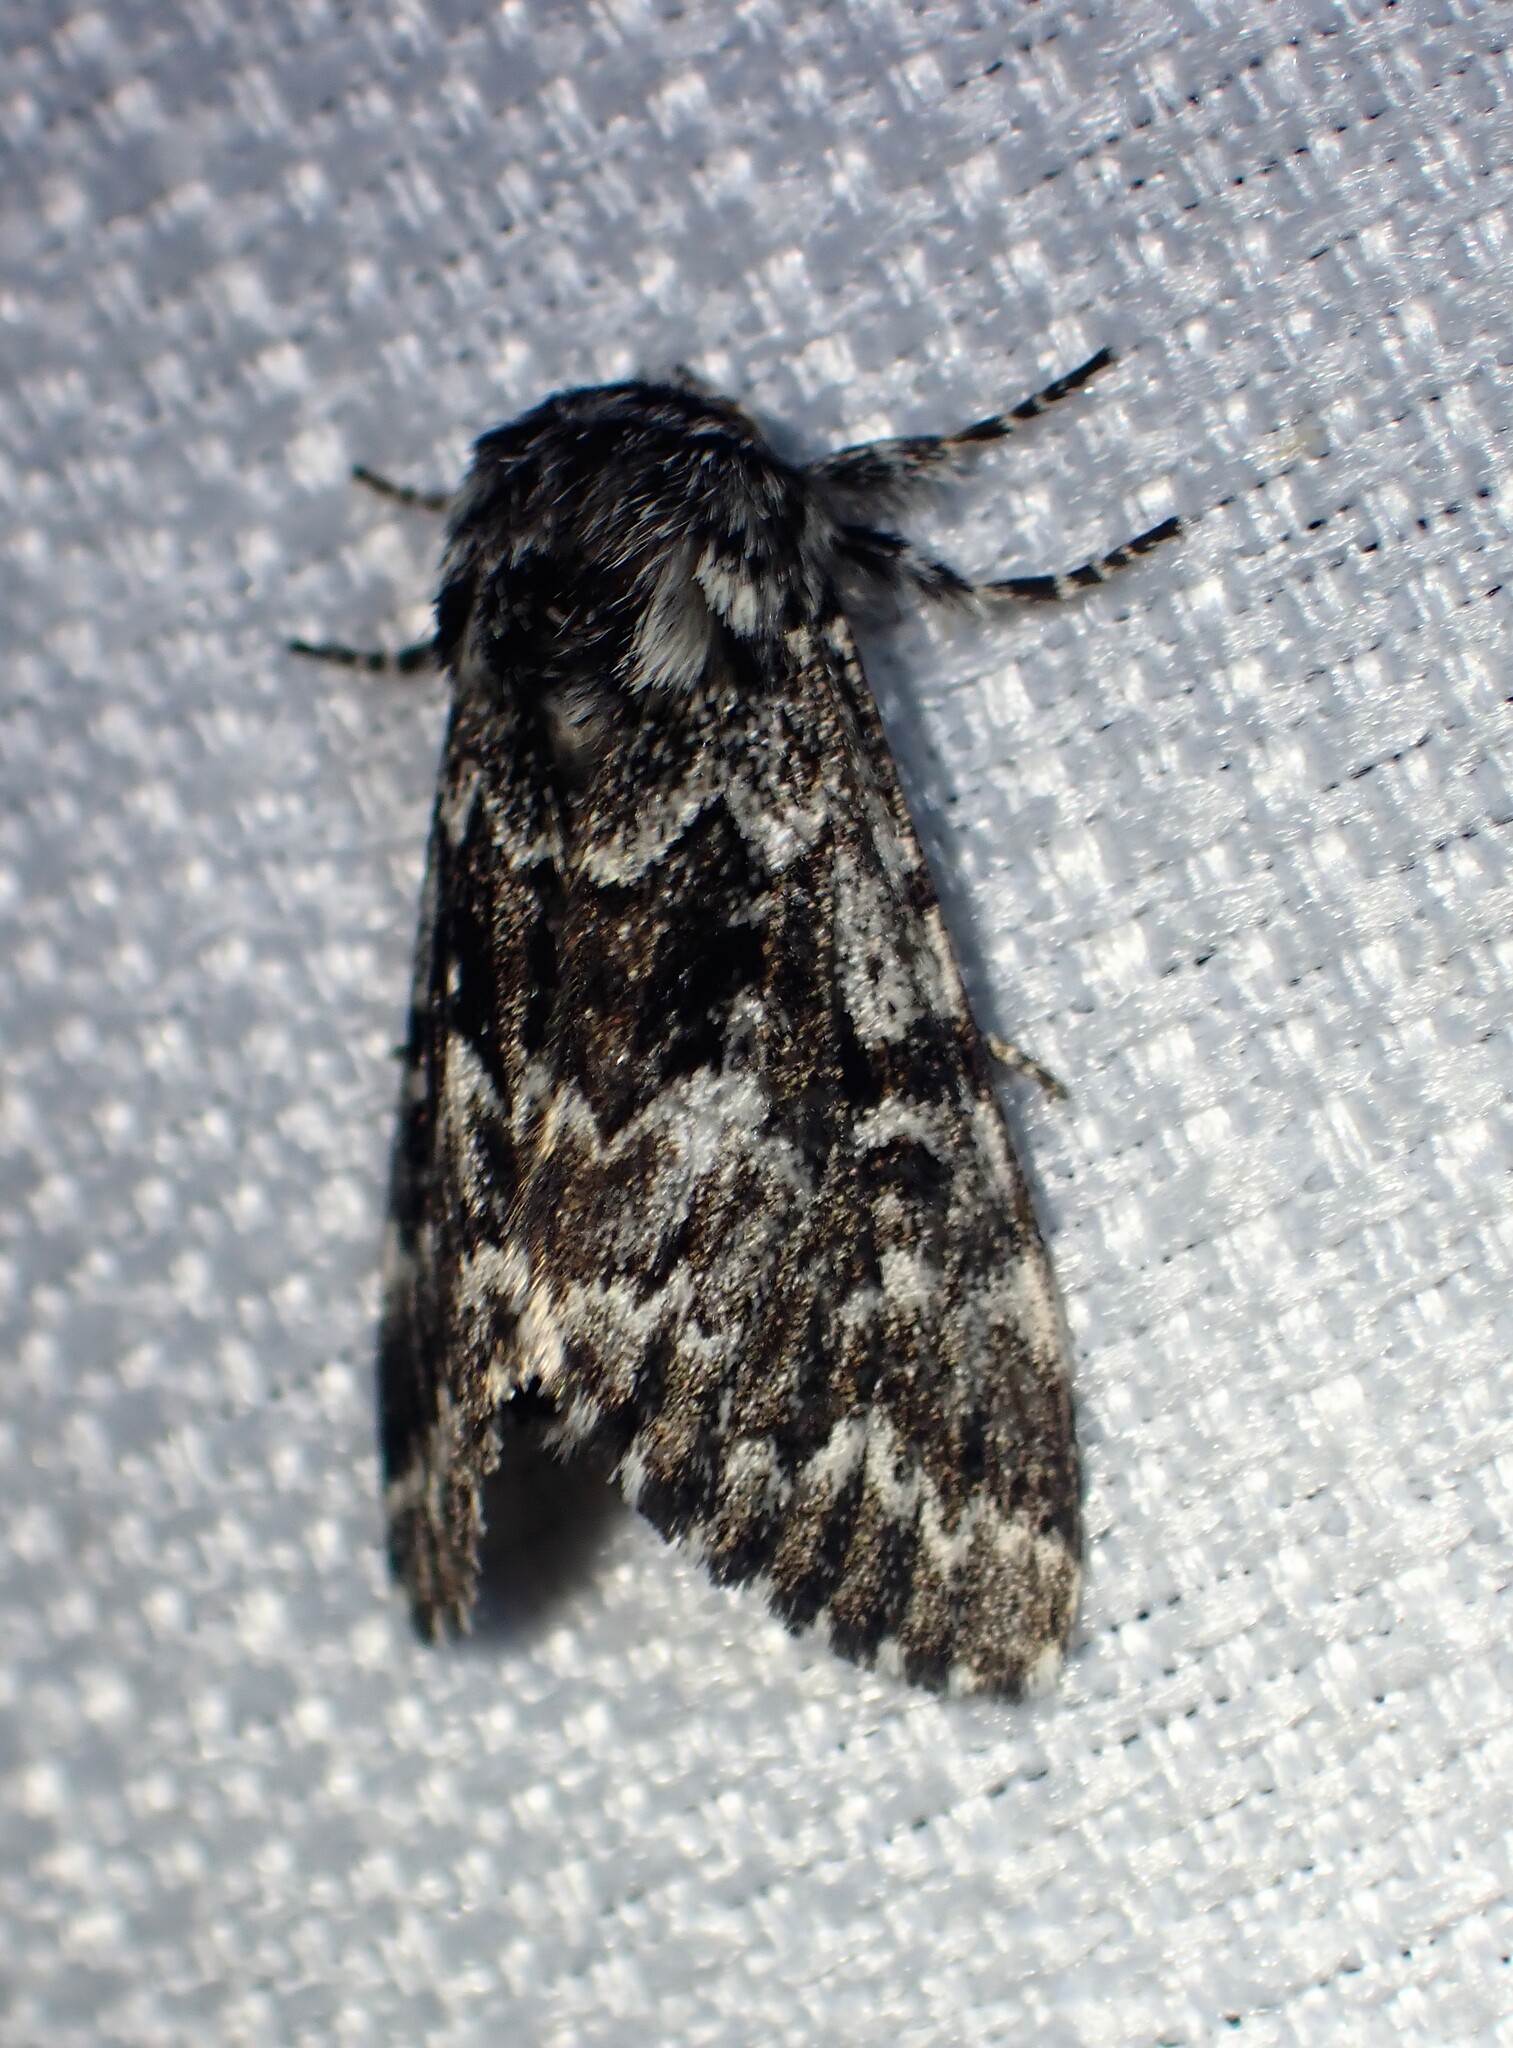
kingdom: Animalia
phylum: Arthropoda
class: Insecta
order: Lepidoptera
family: Noctuidae
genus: Panthea
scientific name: Panthea acronyctoides
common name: Black zigzag moth
